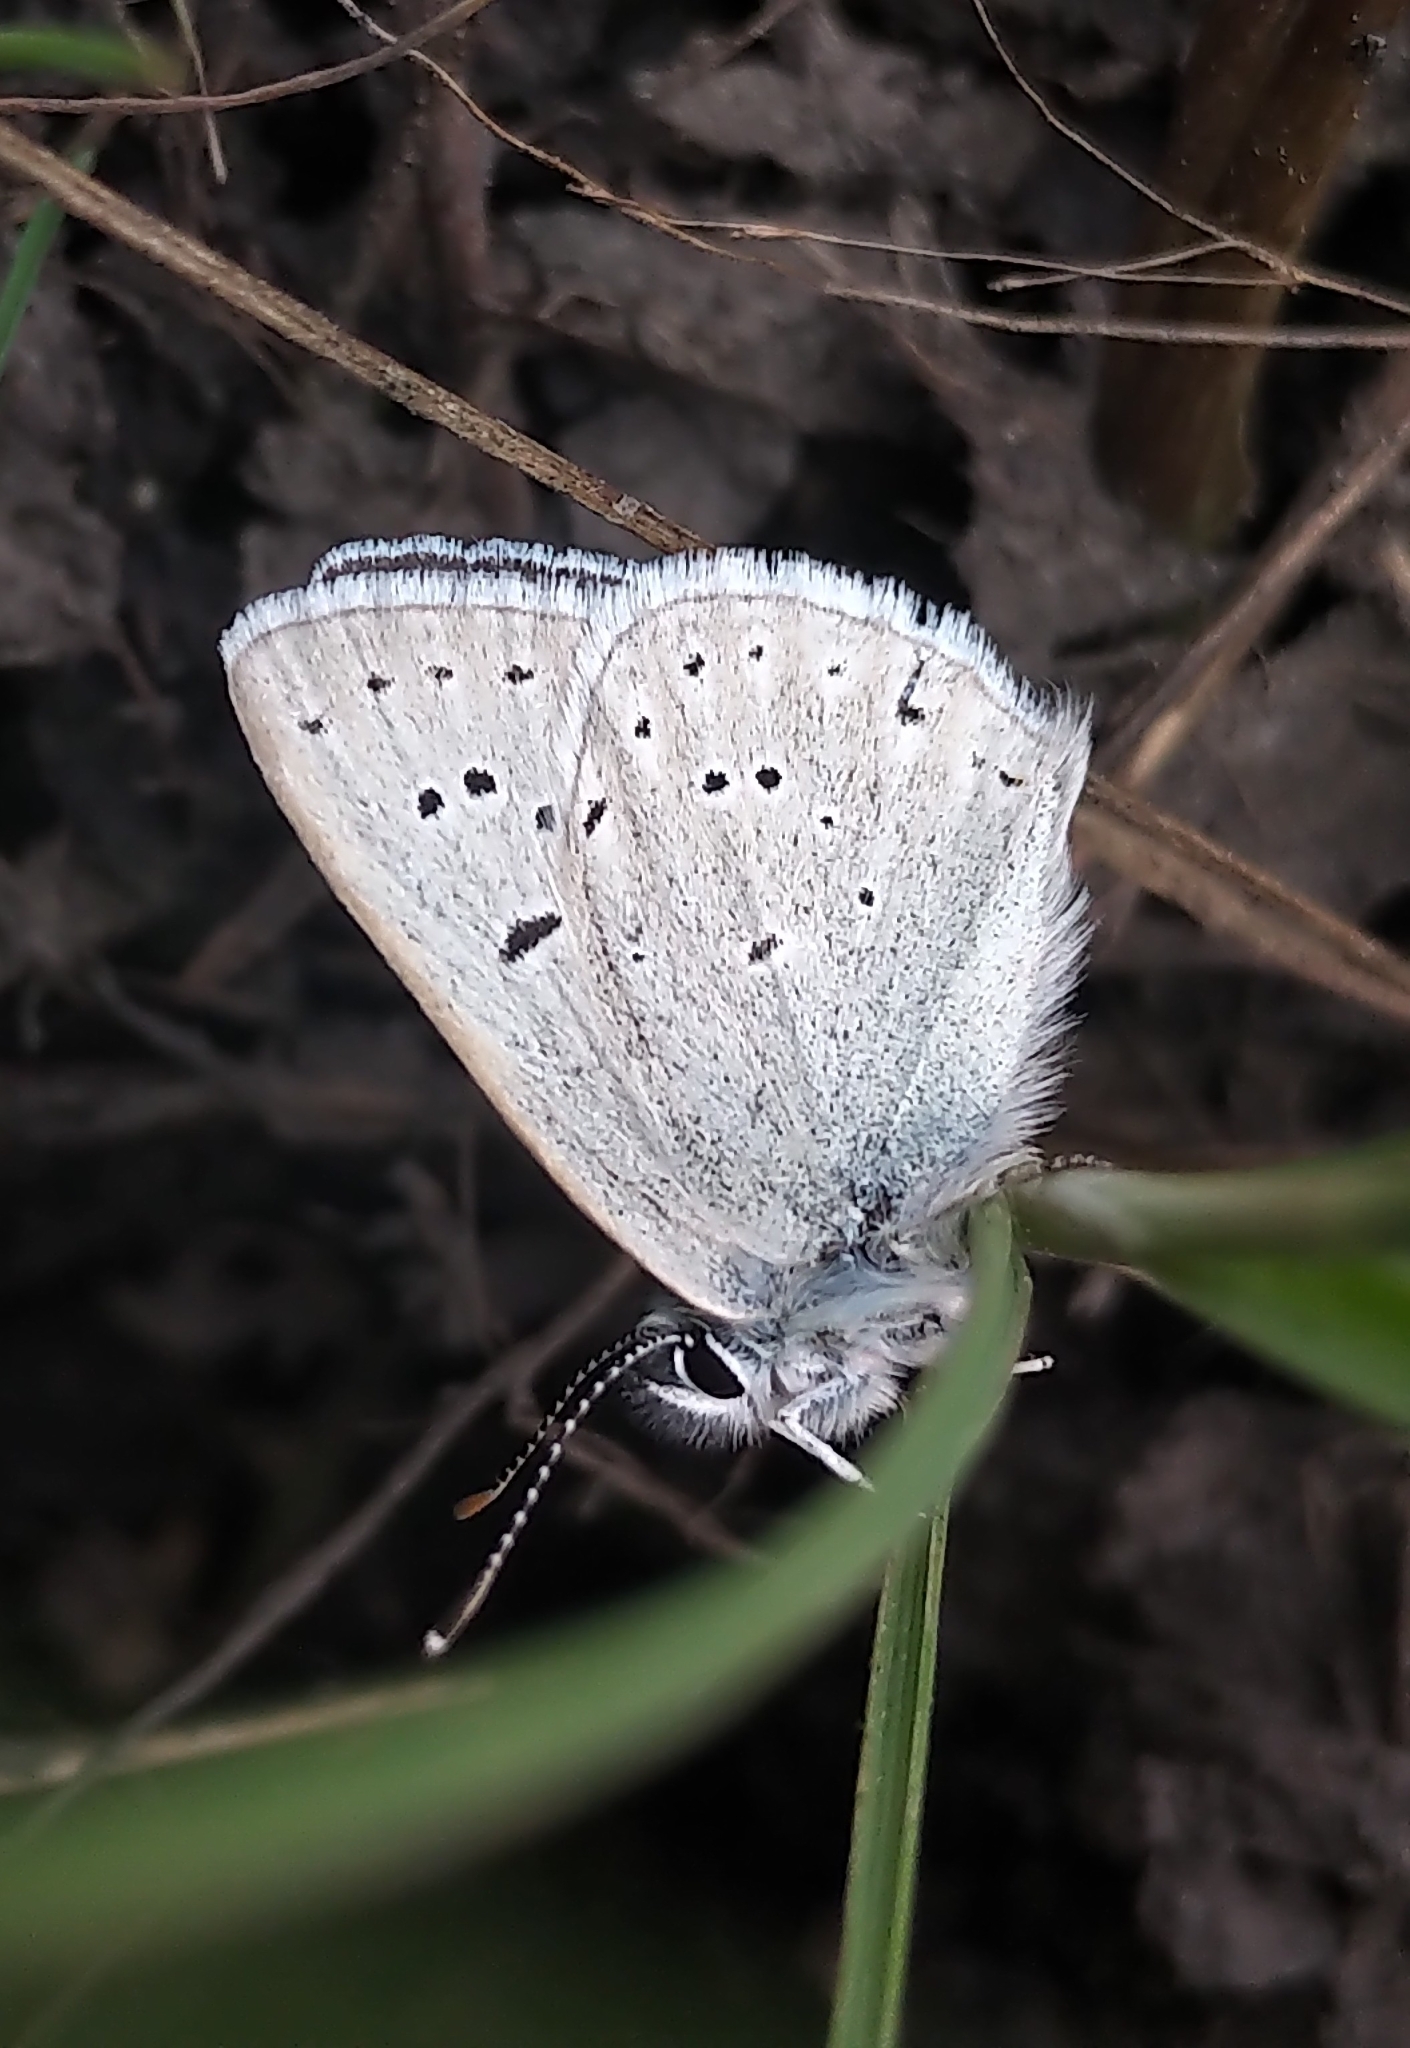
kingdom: Animalia
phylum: Arthropoda
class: Insecta
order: Lepidoptera
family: Lycaenidae
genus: Icaricia
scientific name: Icaricia saepiolus
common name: Greenish blue
